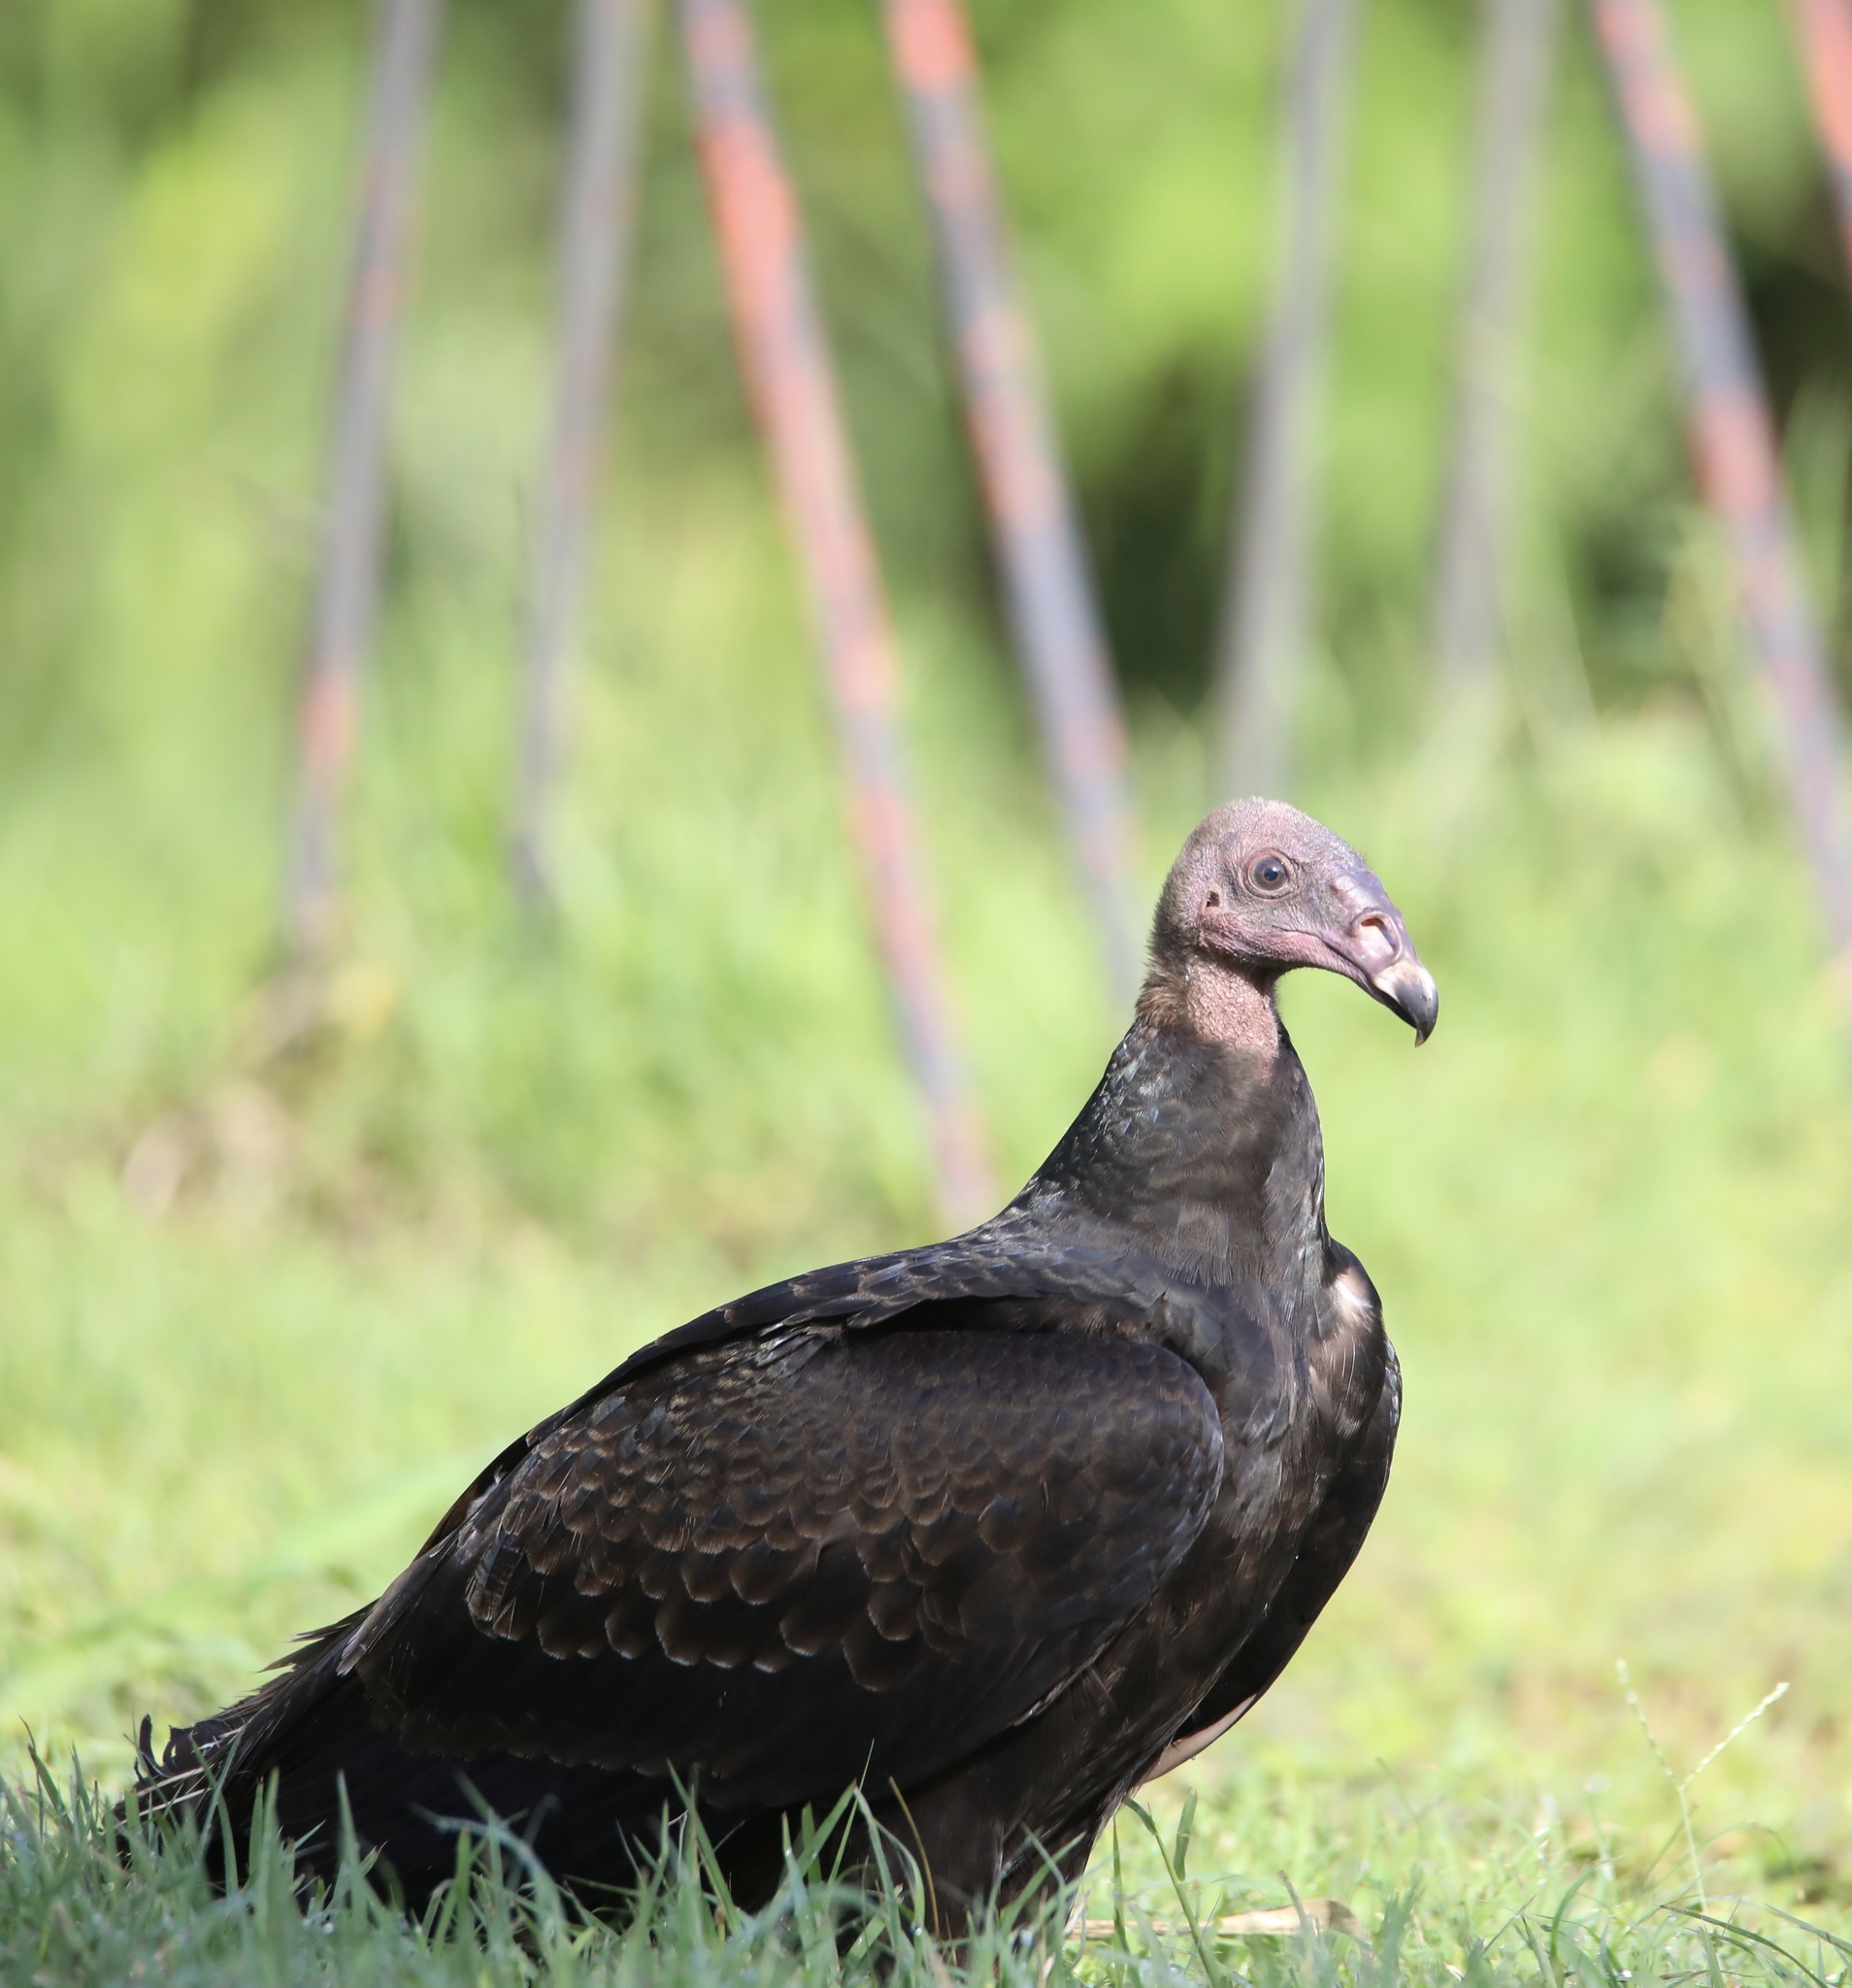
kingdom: Animalia
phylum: Chordata
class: Aves
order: Accipitriformes
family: Cathartidae
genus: Cathartes
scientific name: Cathartes aura
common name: Turkey vulture
